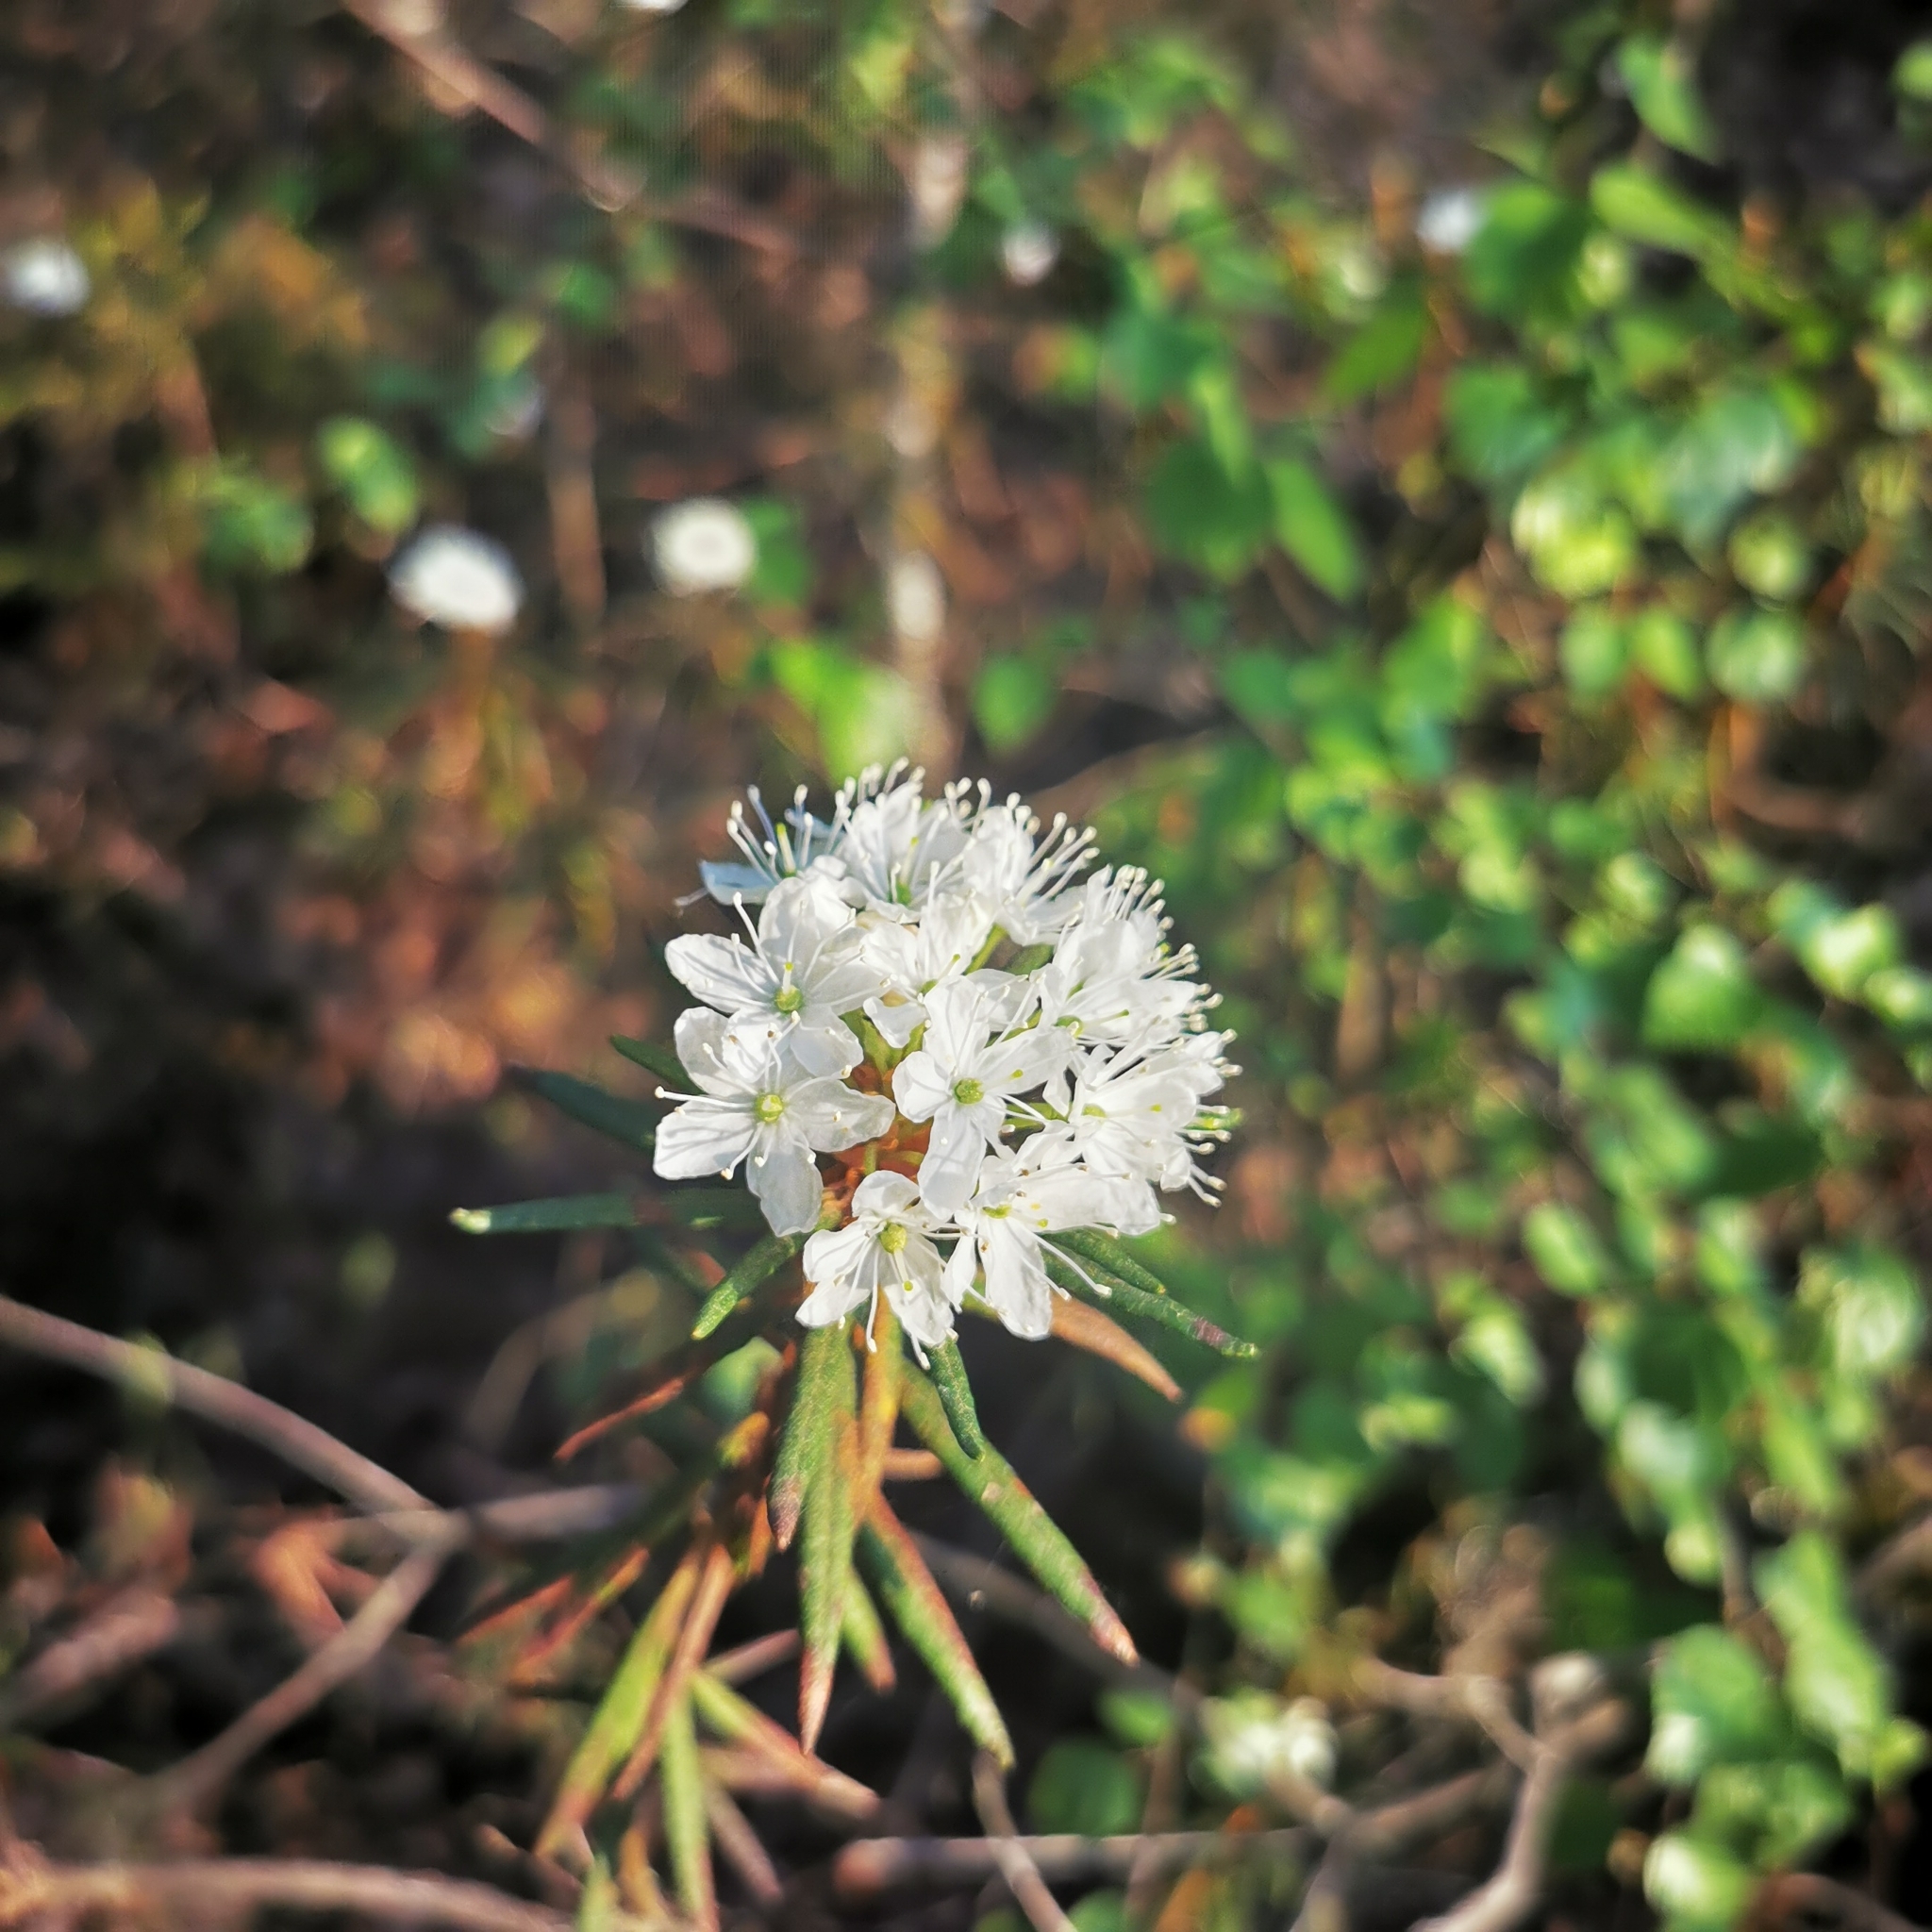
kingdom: Plantae
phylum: Tracheophyta
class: Magnoliopsida
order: Ericales
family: Ericaceae
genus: Rhododendron
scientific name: Rhododendron tomentosum
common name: Marsh labrador tea
